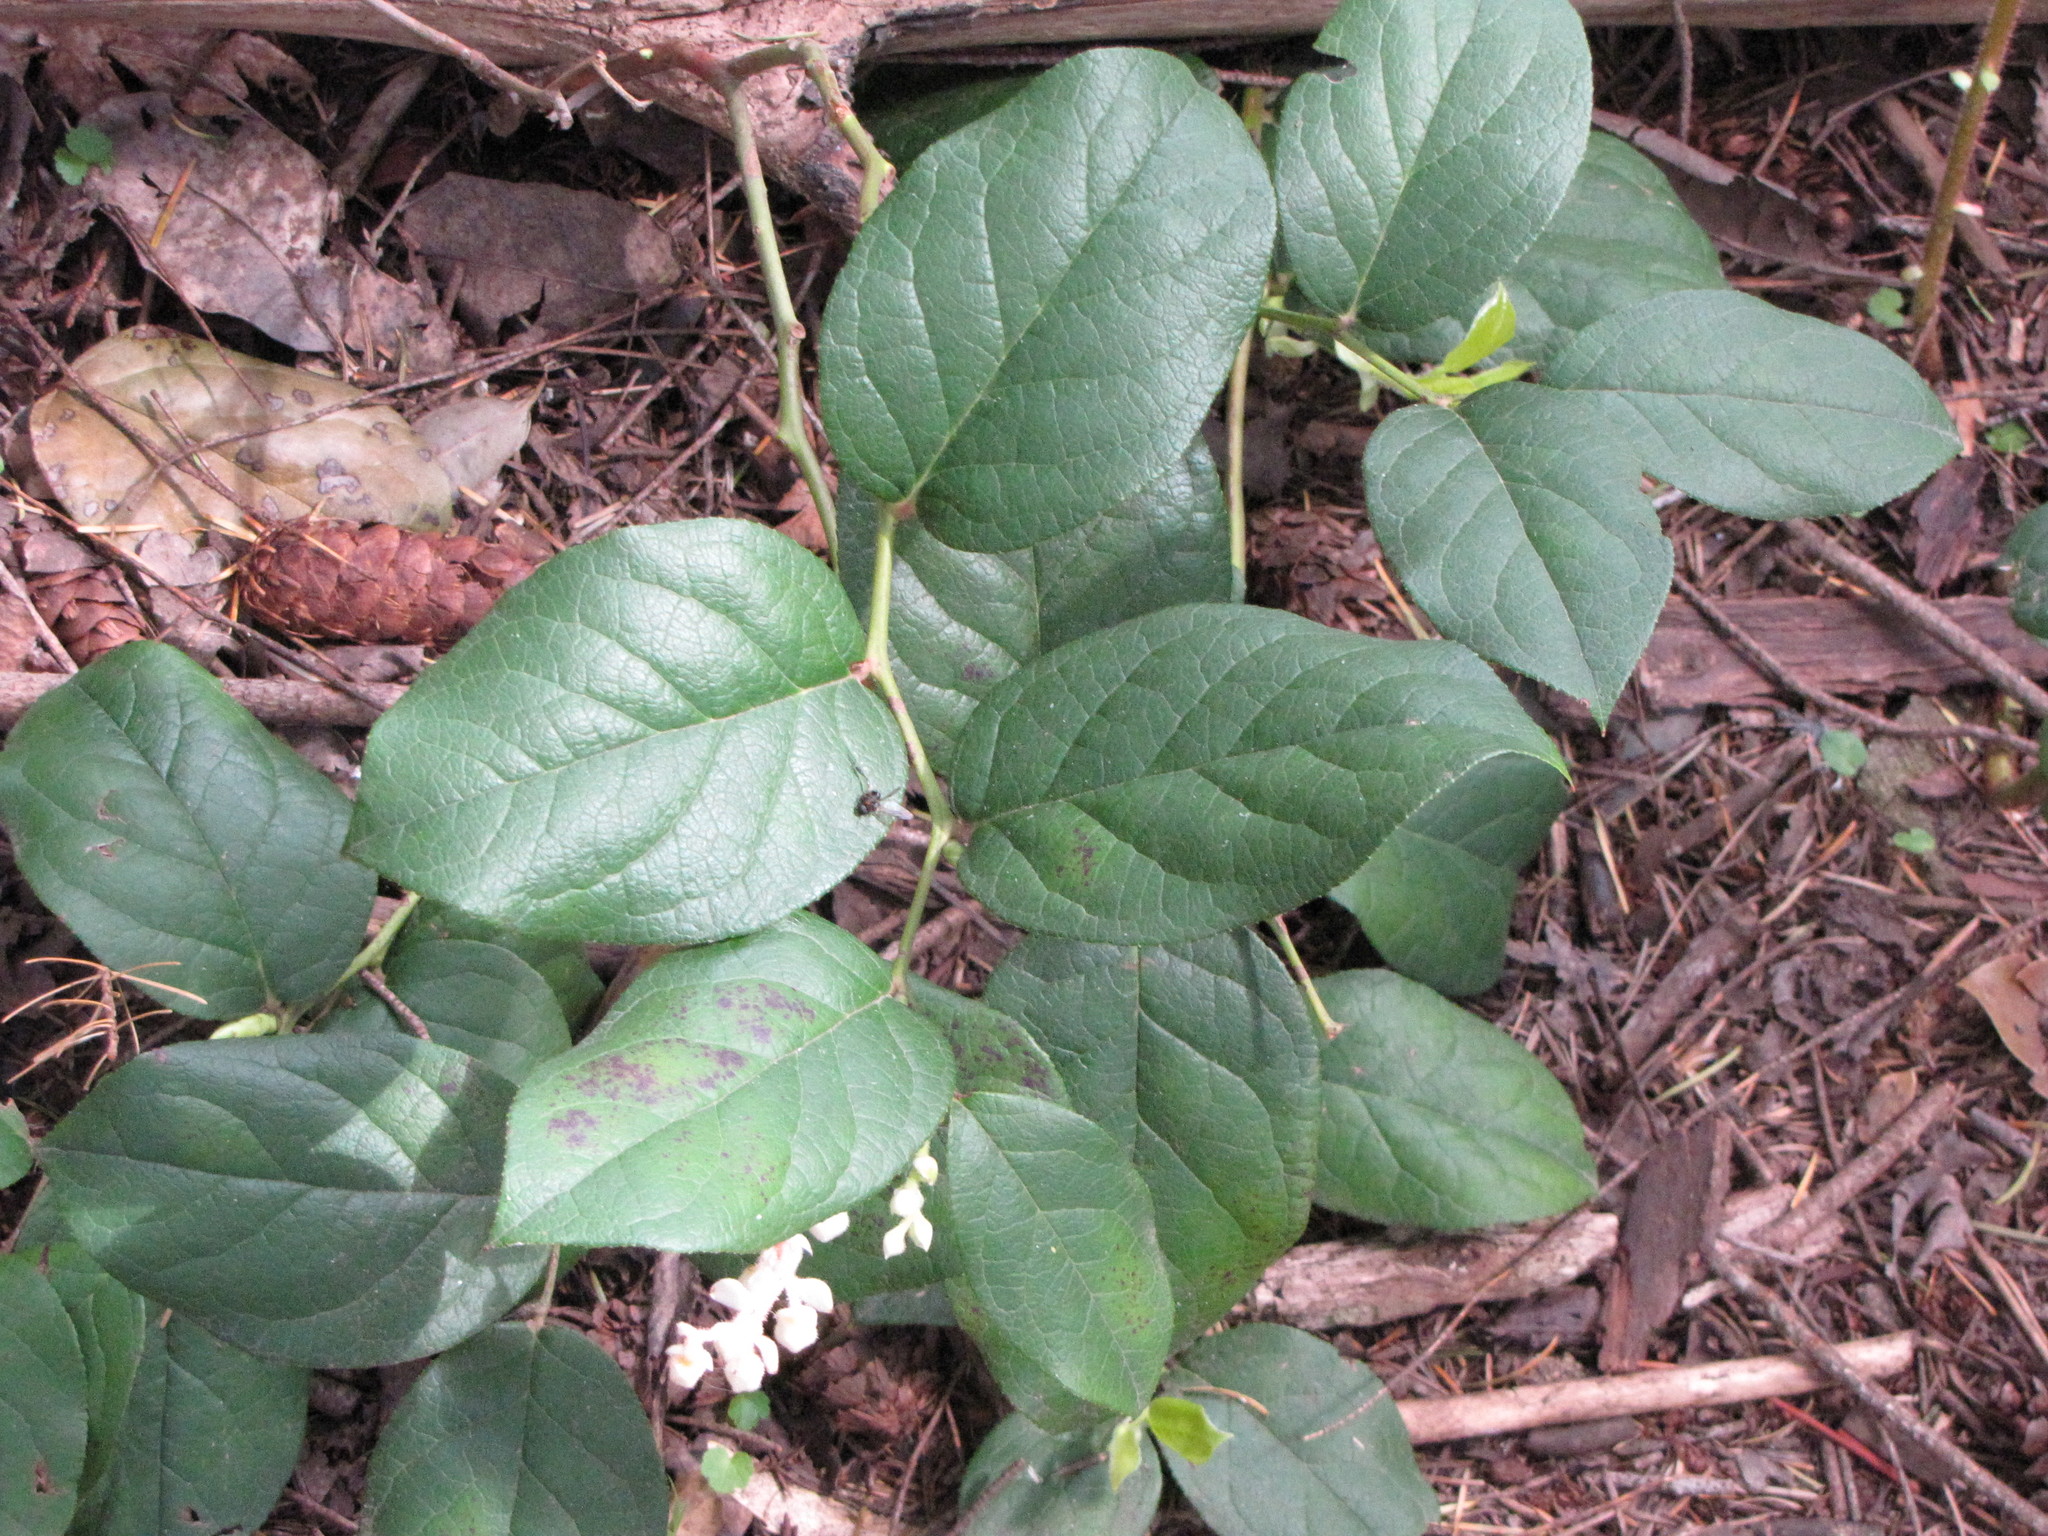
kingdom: Plantae
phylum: Tracheophyta
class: Magnoliopsida
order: Ericales
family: Ericaceae
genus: Gaultheria
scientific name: Gaultheria shallon
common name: Shallon
